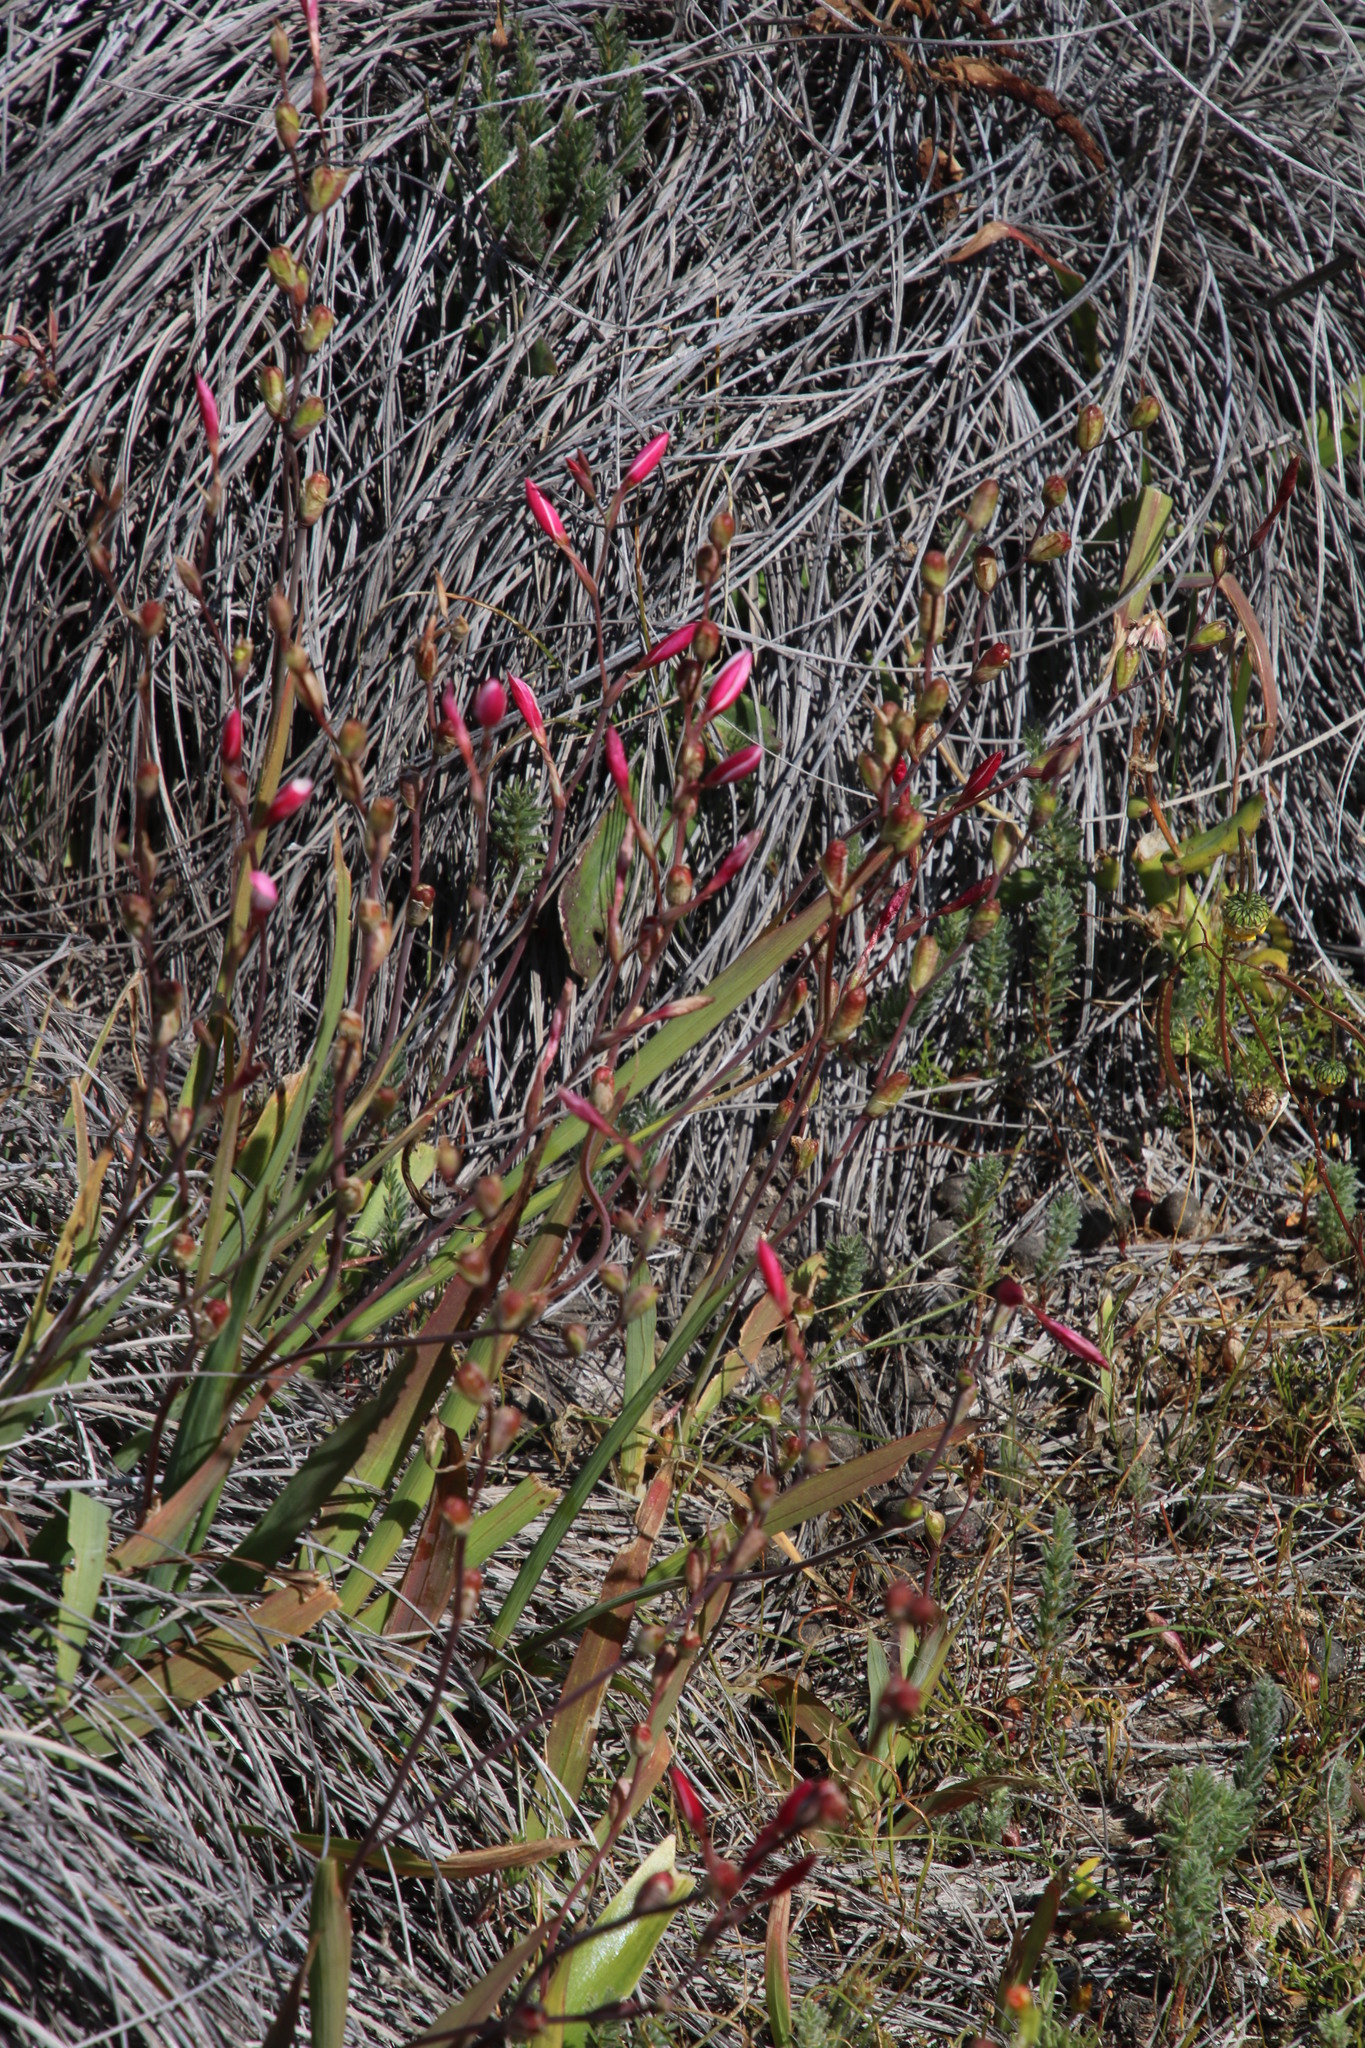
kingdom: Plantae
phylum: Tracheophyta
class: Liliopsida
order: Asparagales
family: Iridaceae
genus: Hesperantha
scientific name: Hesperantha cucullata
